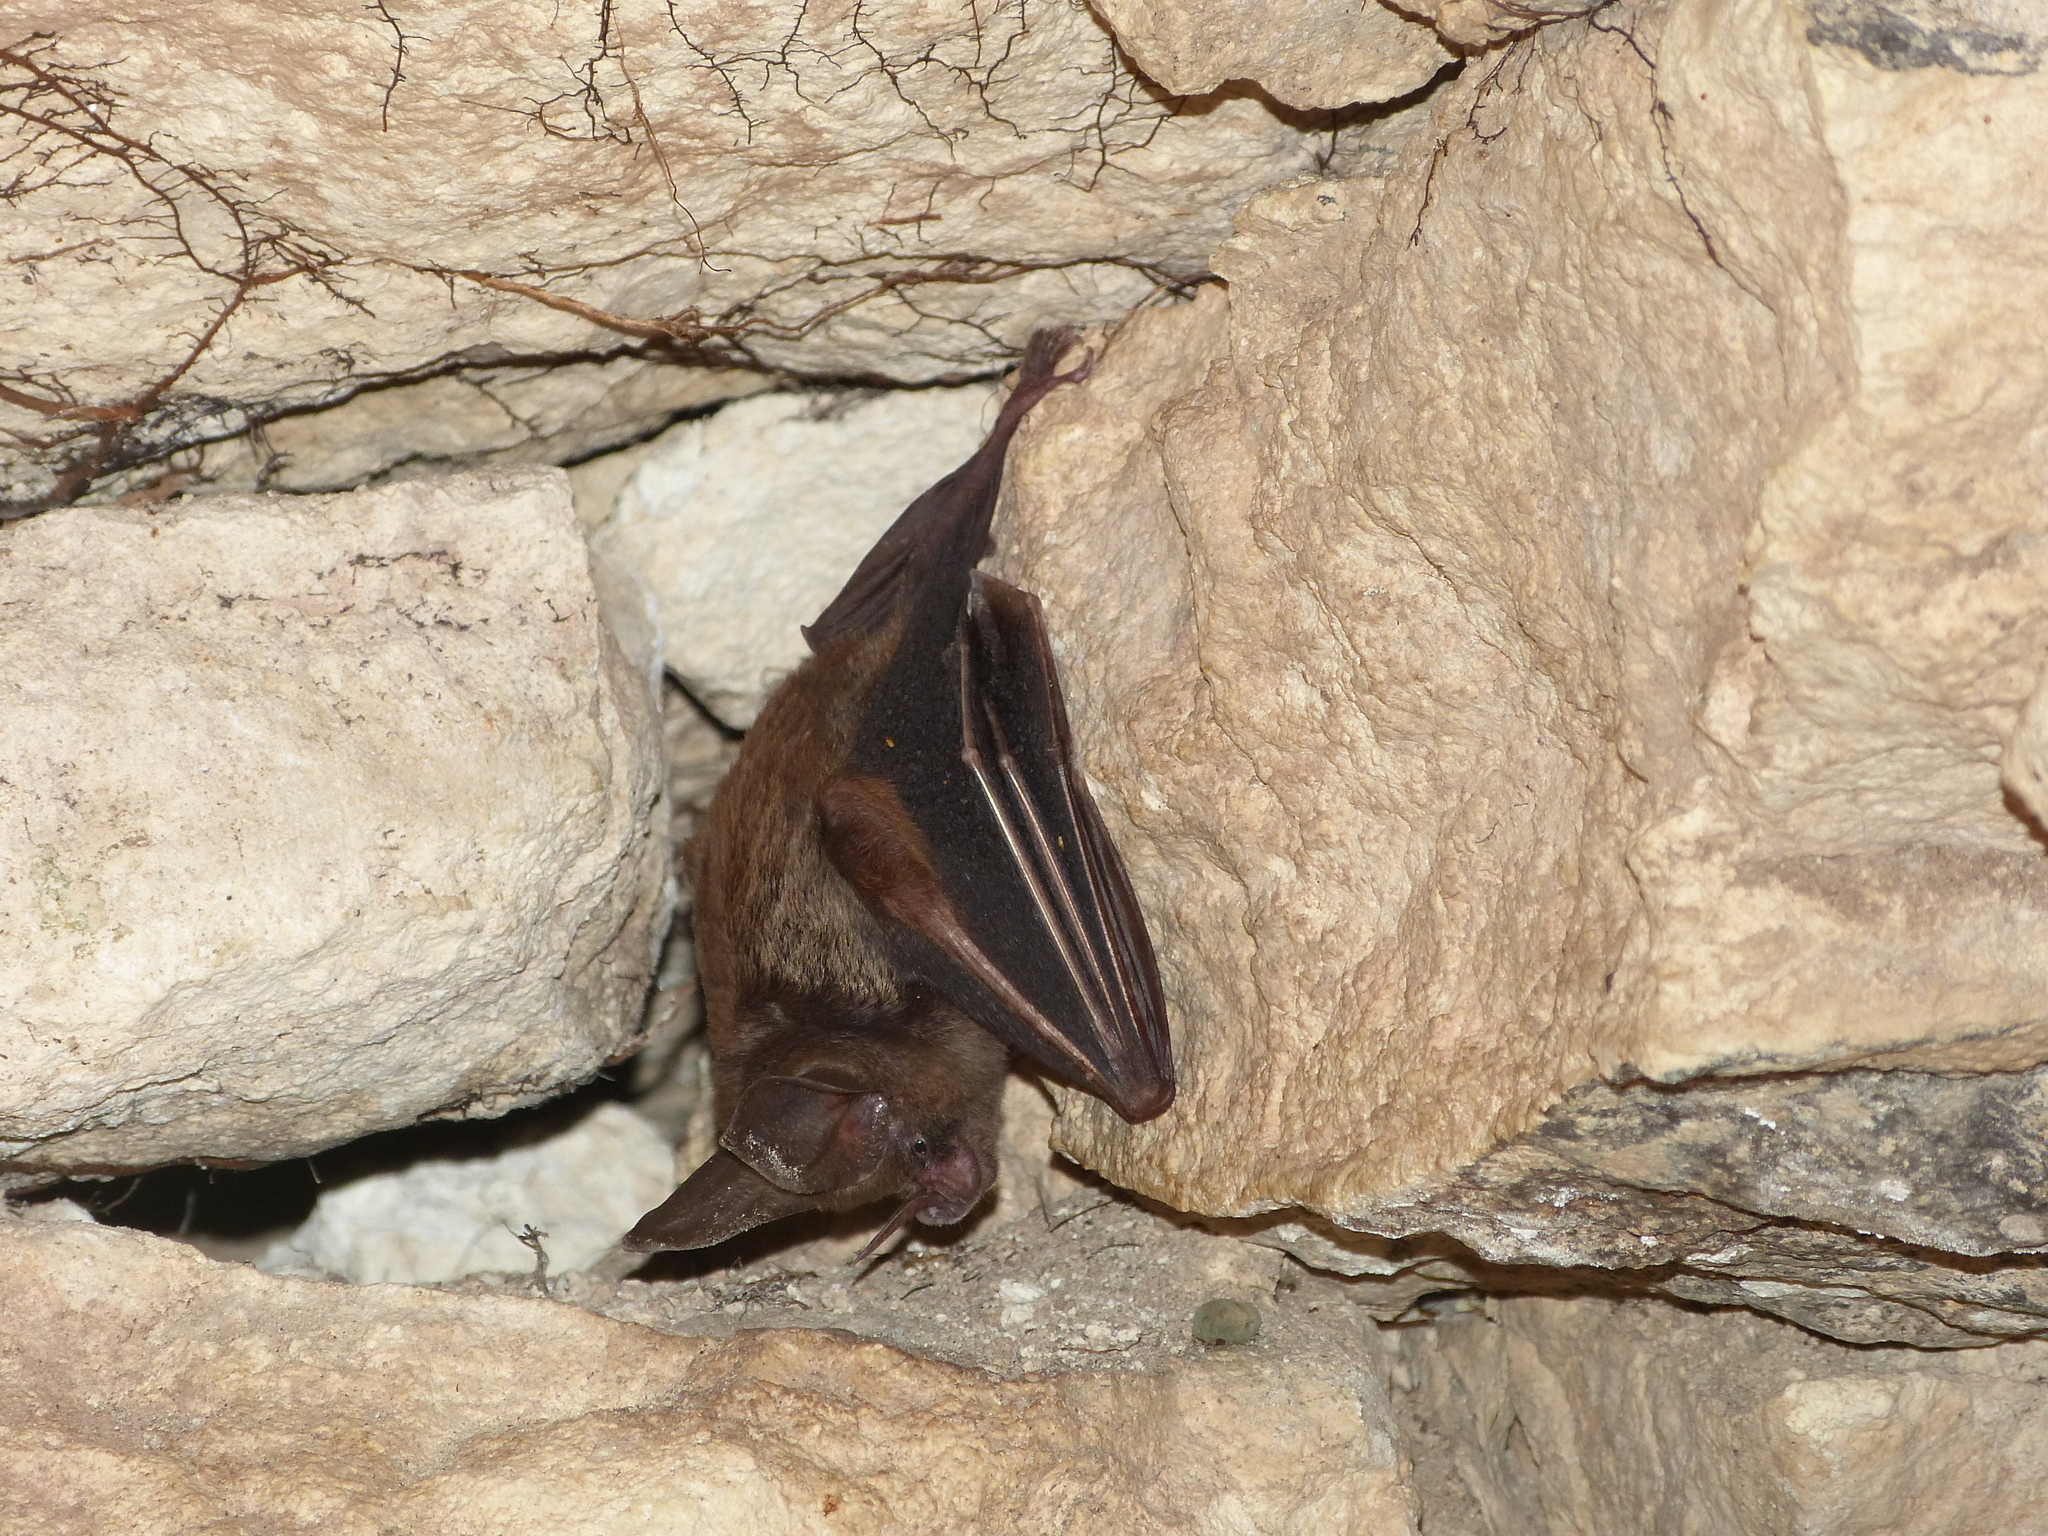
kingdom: Animalia
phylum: Chordata
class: Mammalia
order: Chiroptera
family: Phyllostomidae
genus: Mimon
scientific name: Mimon cozumelae
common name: Cozumelan golden bat
